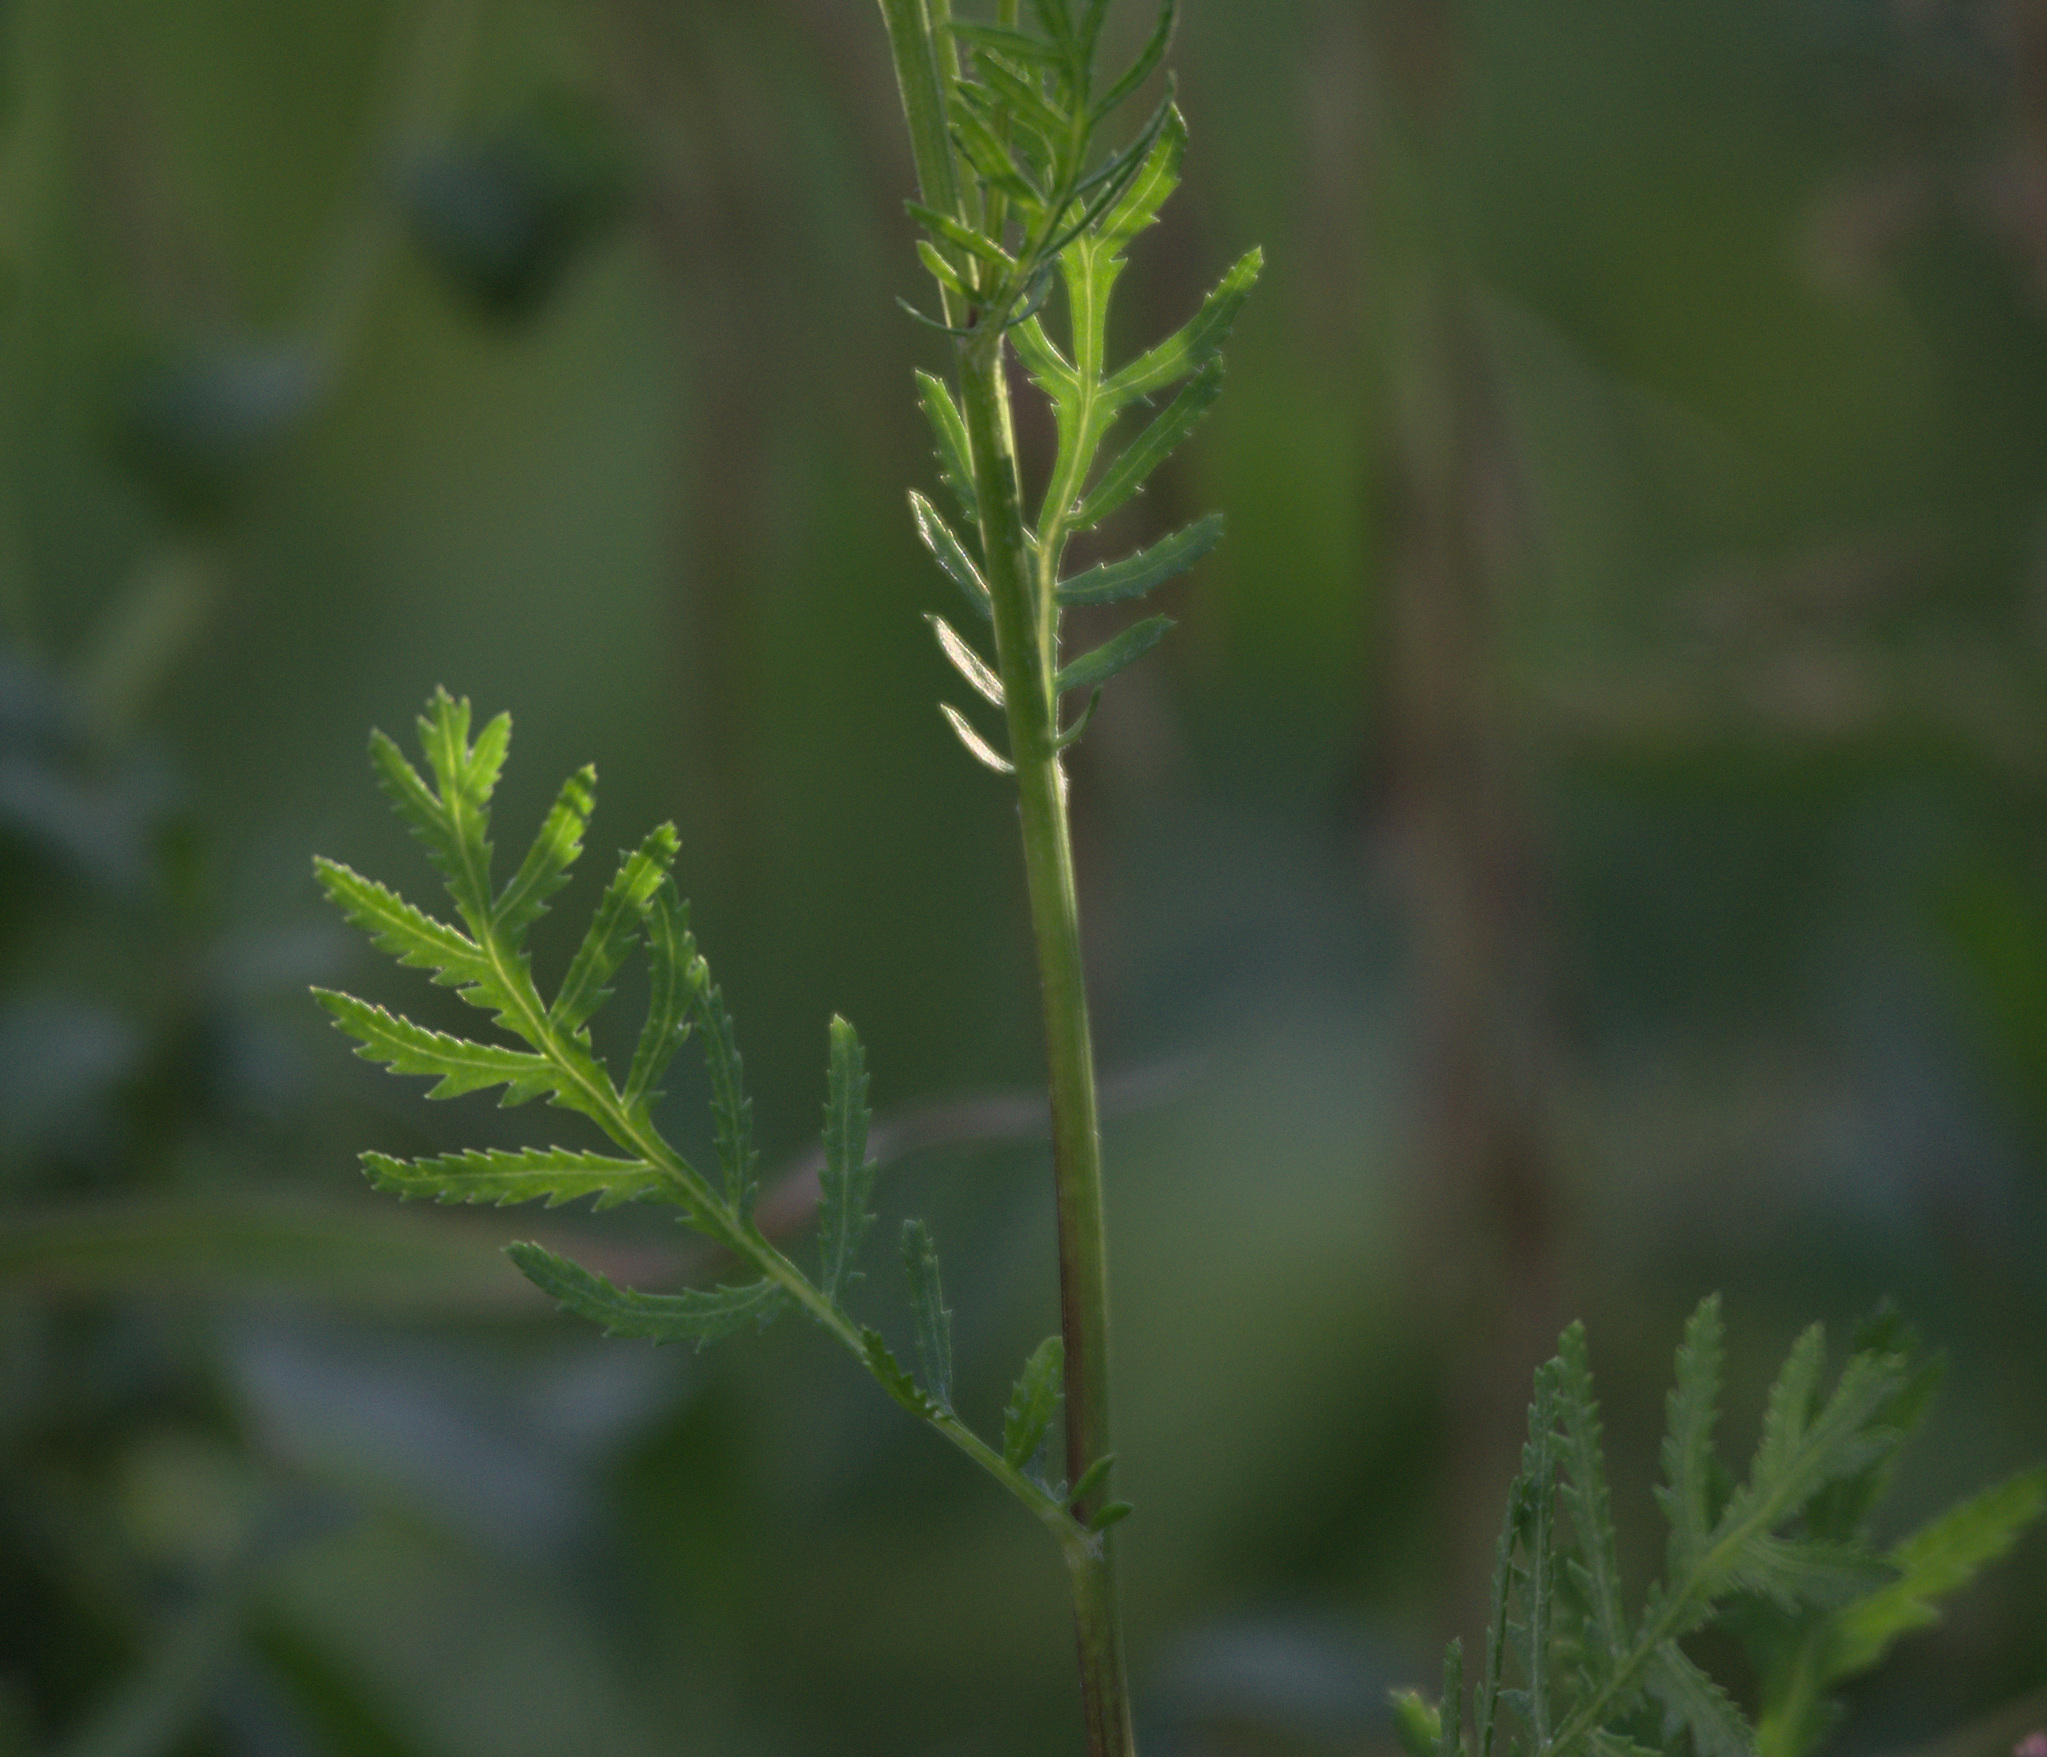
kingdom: Plantae
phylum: Tracheophyta
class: Magnoliopsida
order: Asterales
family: Asteraceae
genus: Tanacetum
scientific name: Tanacetum vulgare
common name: Common tansy
